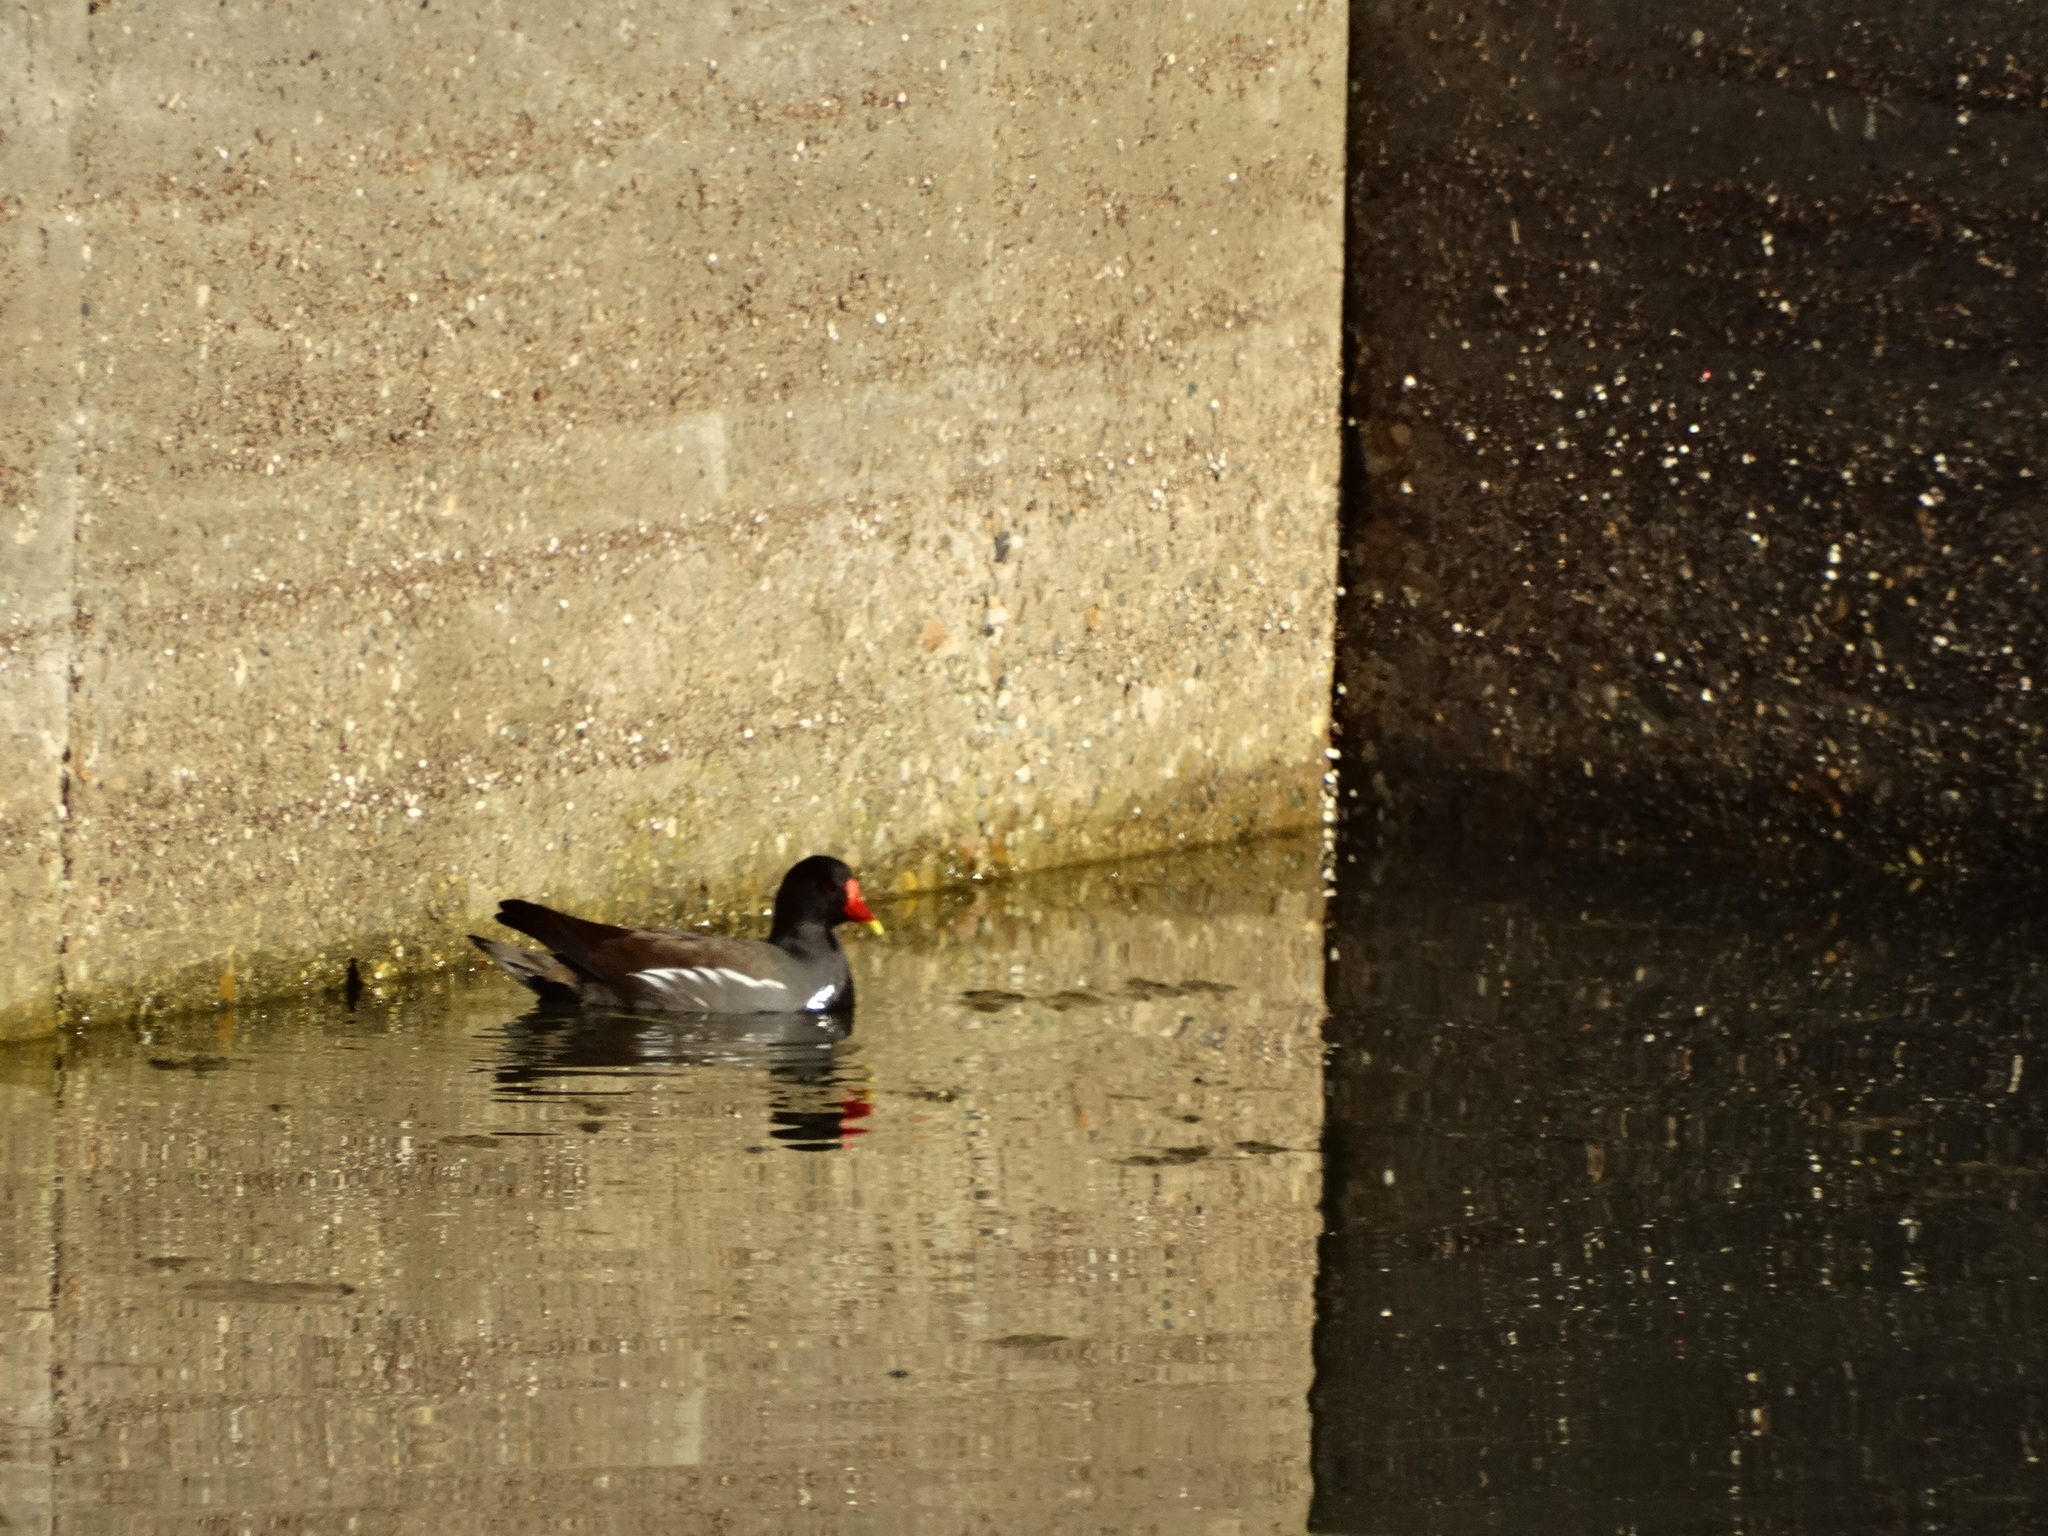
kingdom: Animalia
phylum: Chordata
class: Aves
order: Gruiformes
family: Rallidae
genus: Gallinula
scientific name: Gallinula chloropus
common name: Common moorhen
